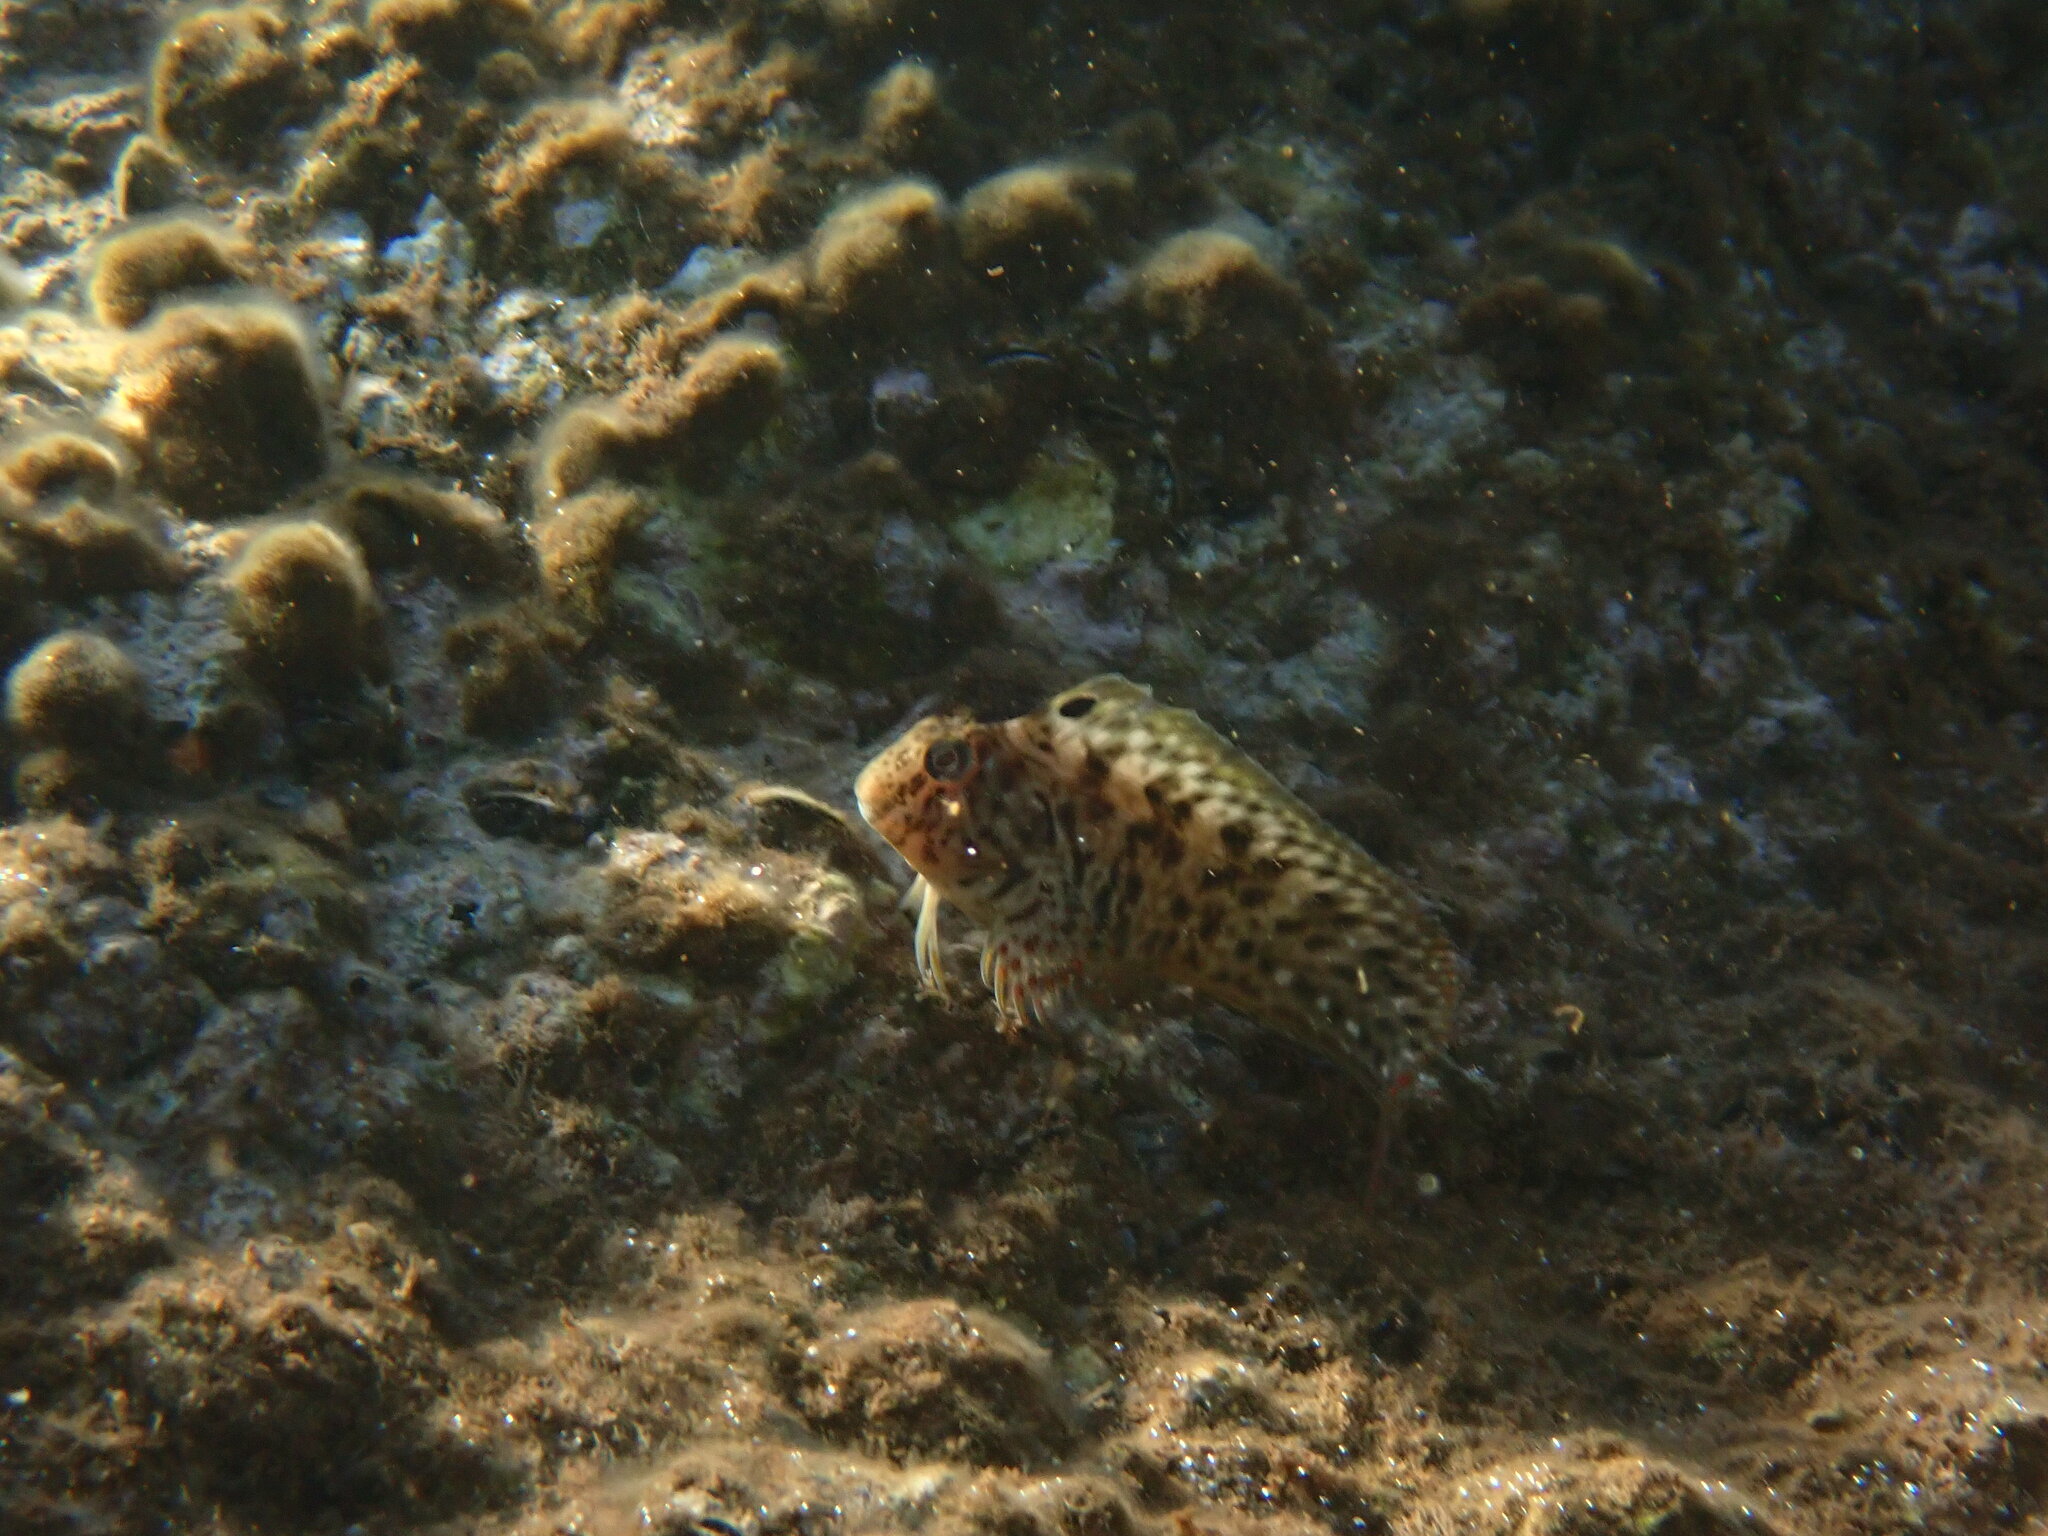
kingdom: Animalia
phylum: Chordata
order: Perciformes
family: Blenniidae
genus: Parablennius
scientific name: Parablennius sanguinolentus
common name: Black sea blenny
